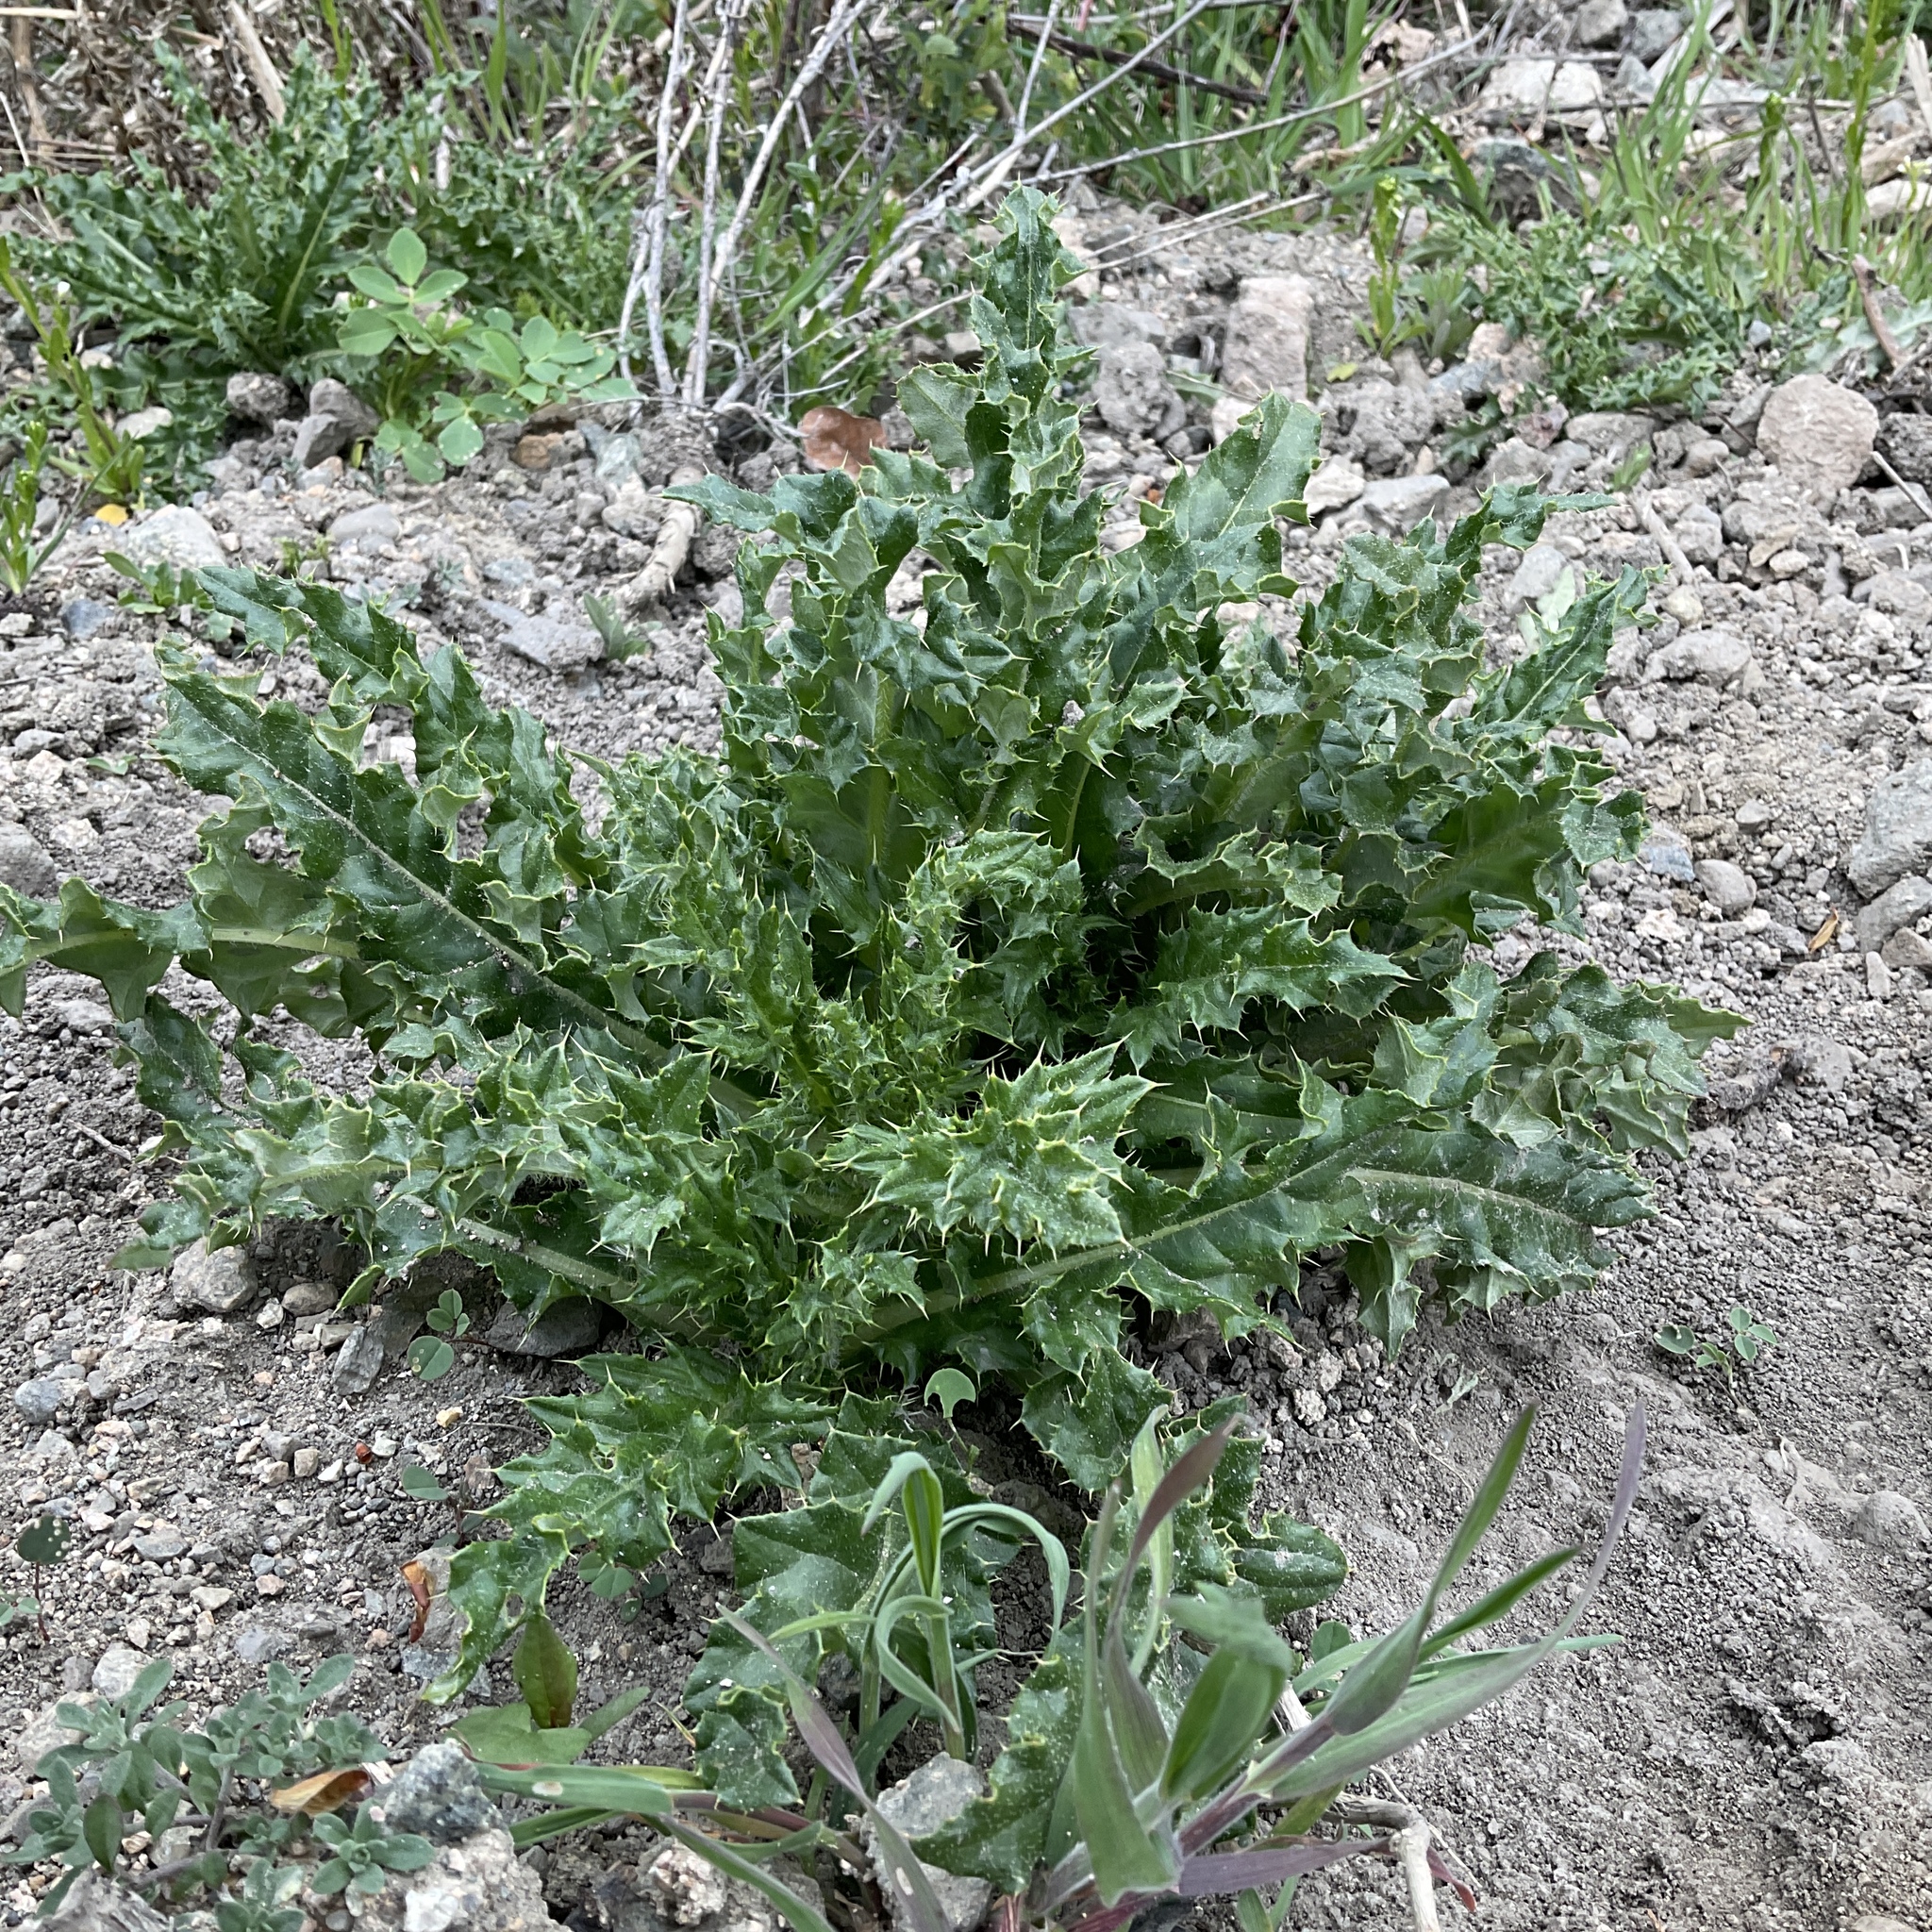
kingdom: Plantae
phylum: Tracheophyta
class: Magnoliopsida
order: Asterales
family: Asteraceae
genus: Cirsium
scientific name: Cirsium arvense
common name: Creeping thistle
